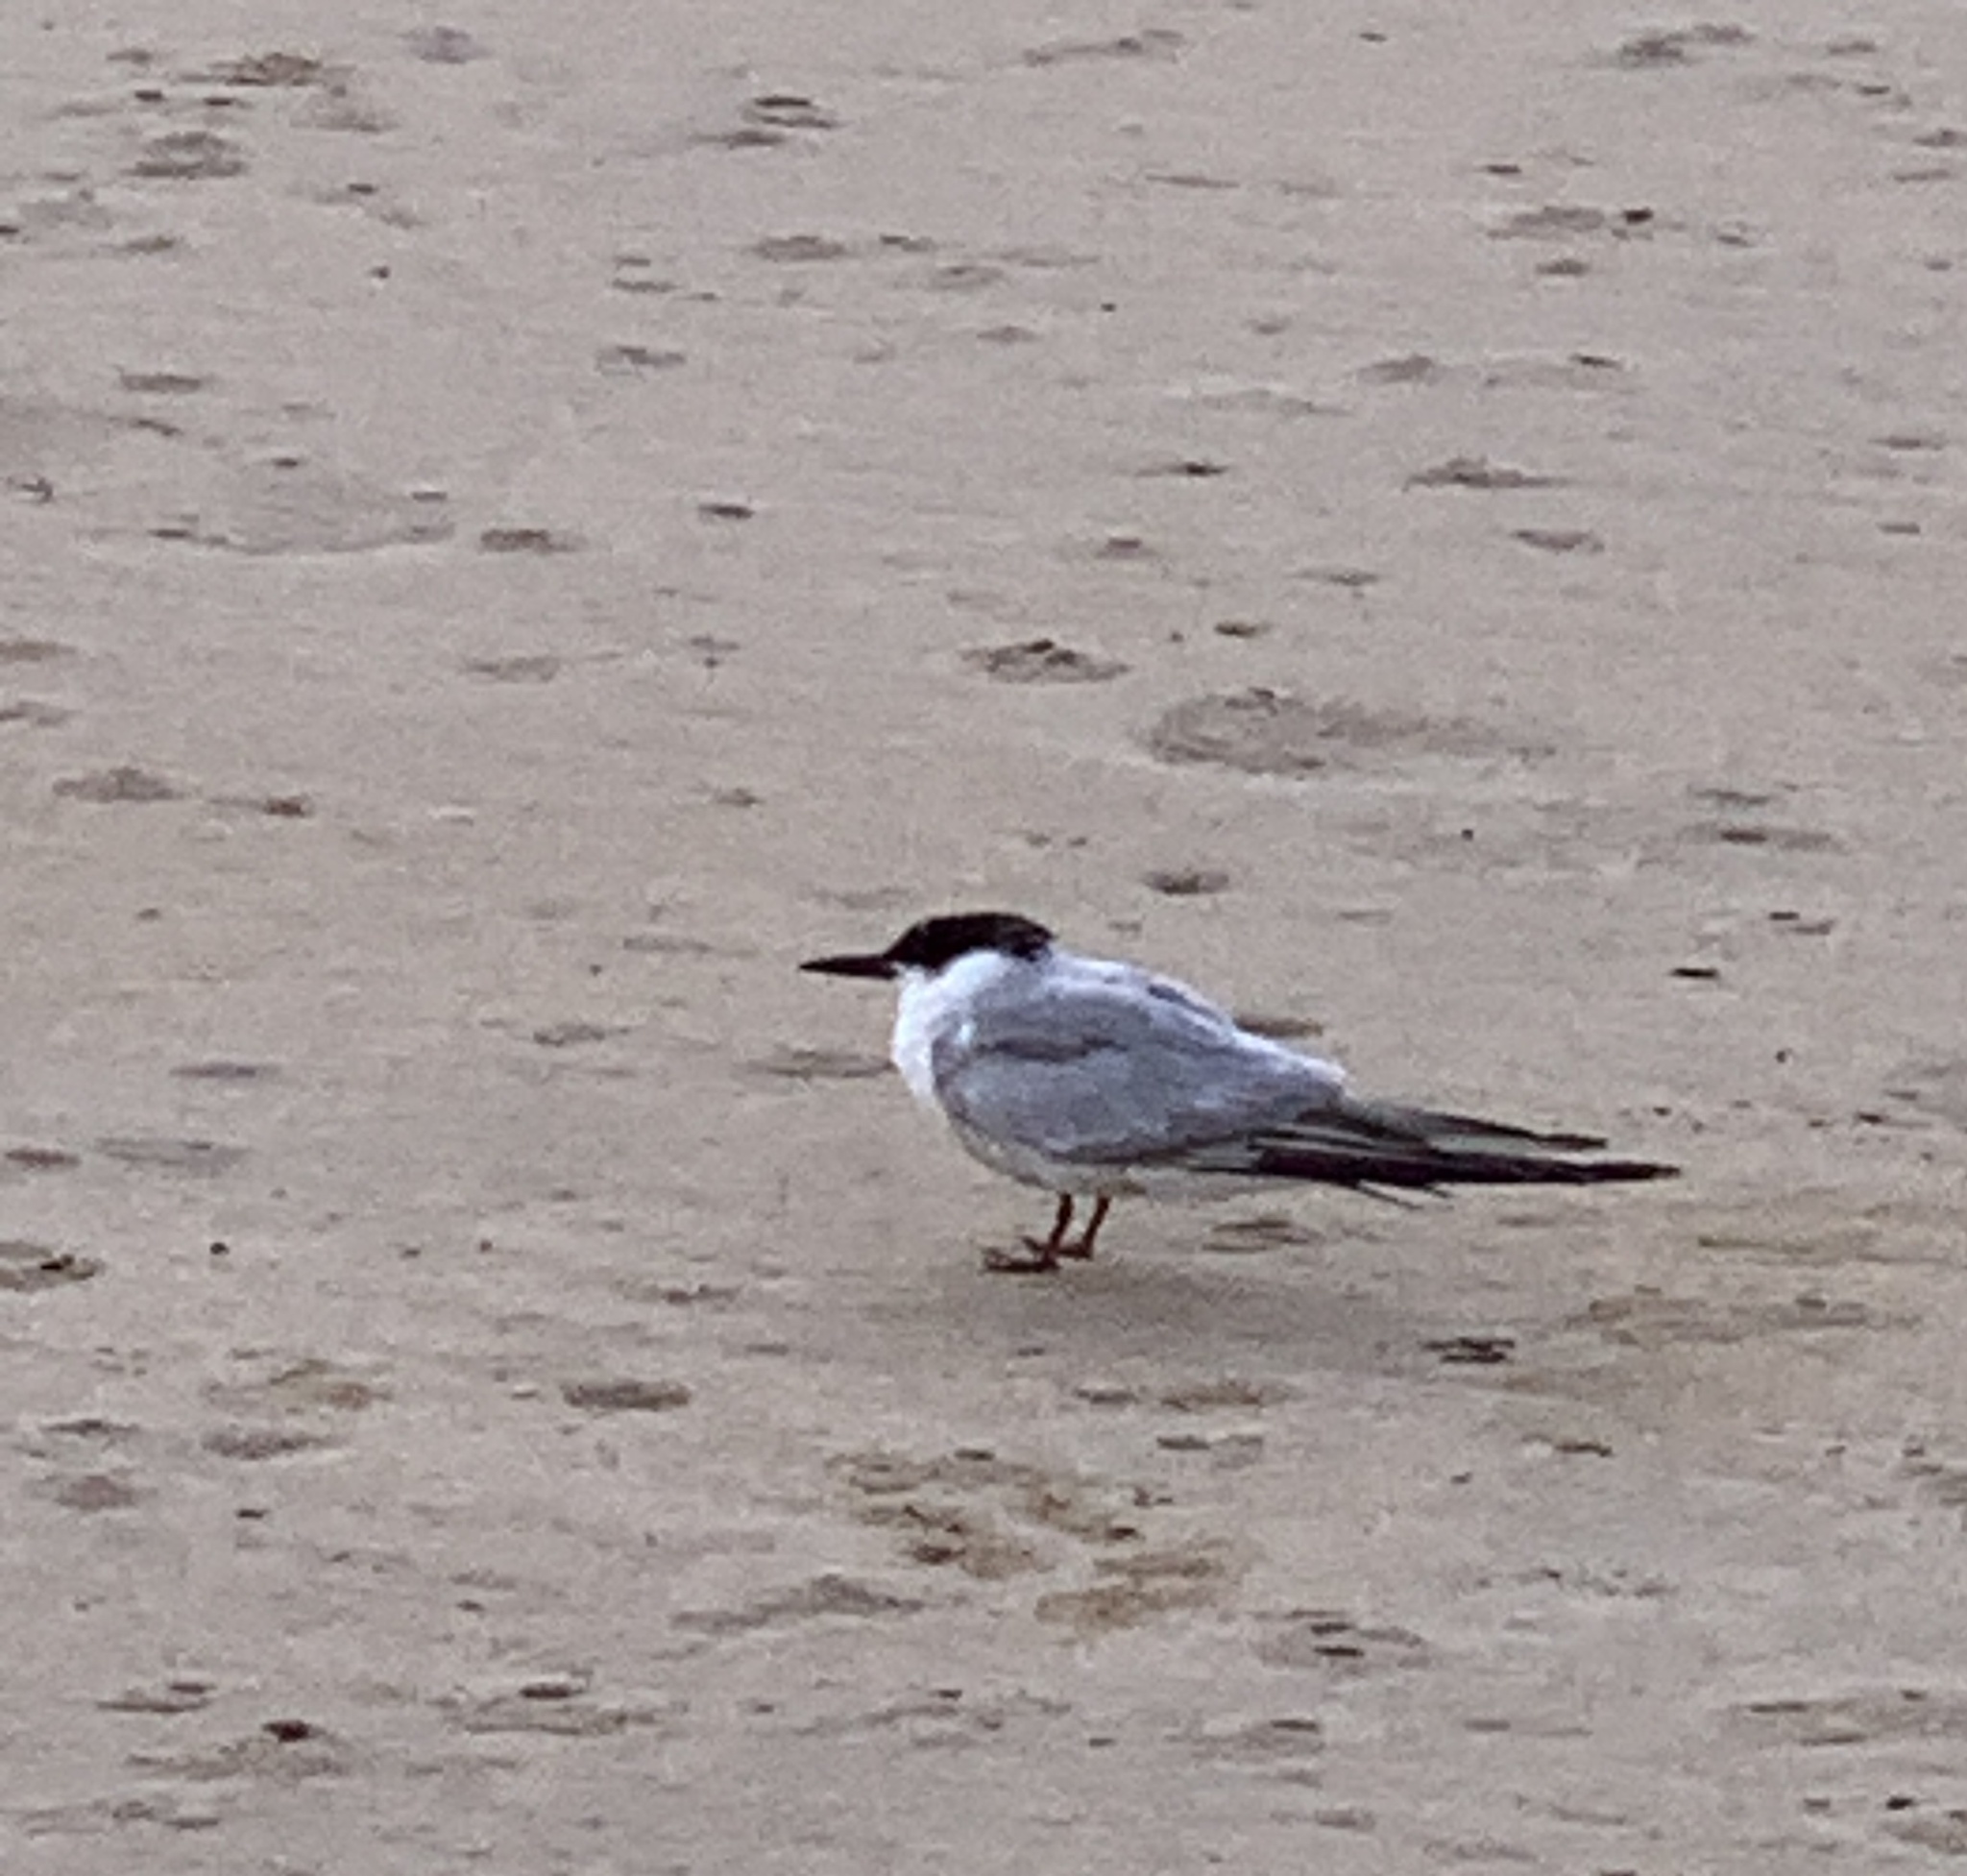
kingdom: Animalia
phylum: Chordata
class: Aves
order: Charadriiformes
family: Laridae
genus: Sterna
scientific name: Sterna hirundo
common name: Common tern
